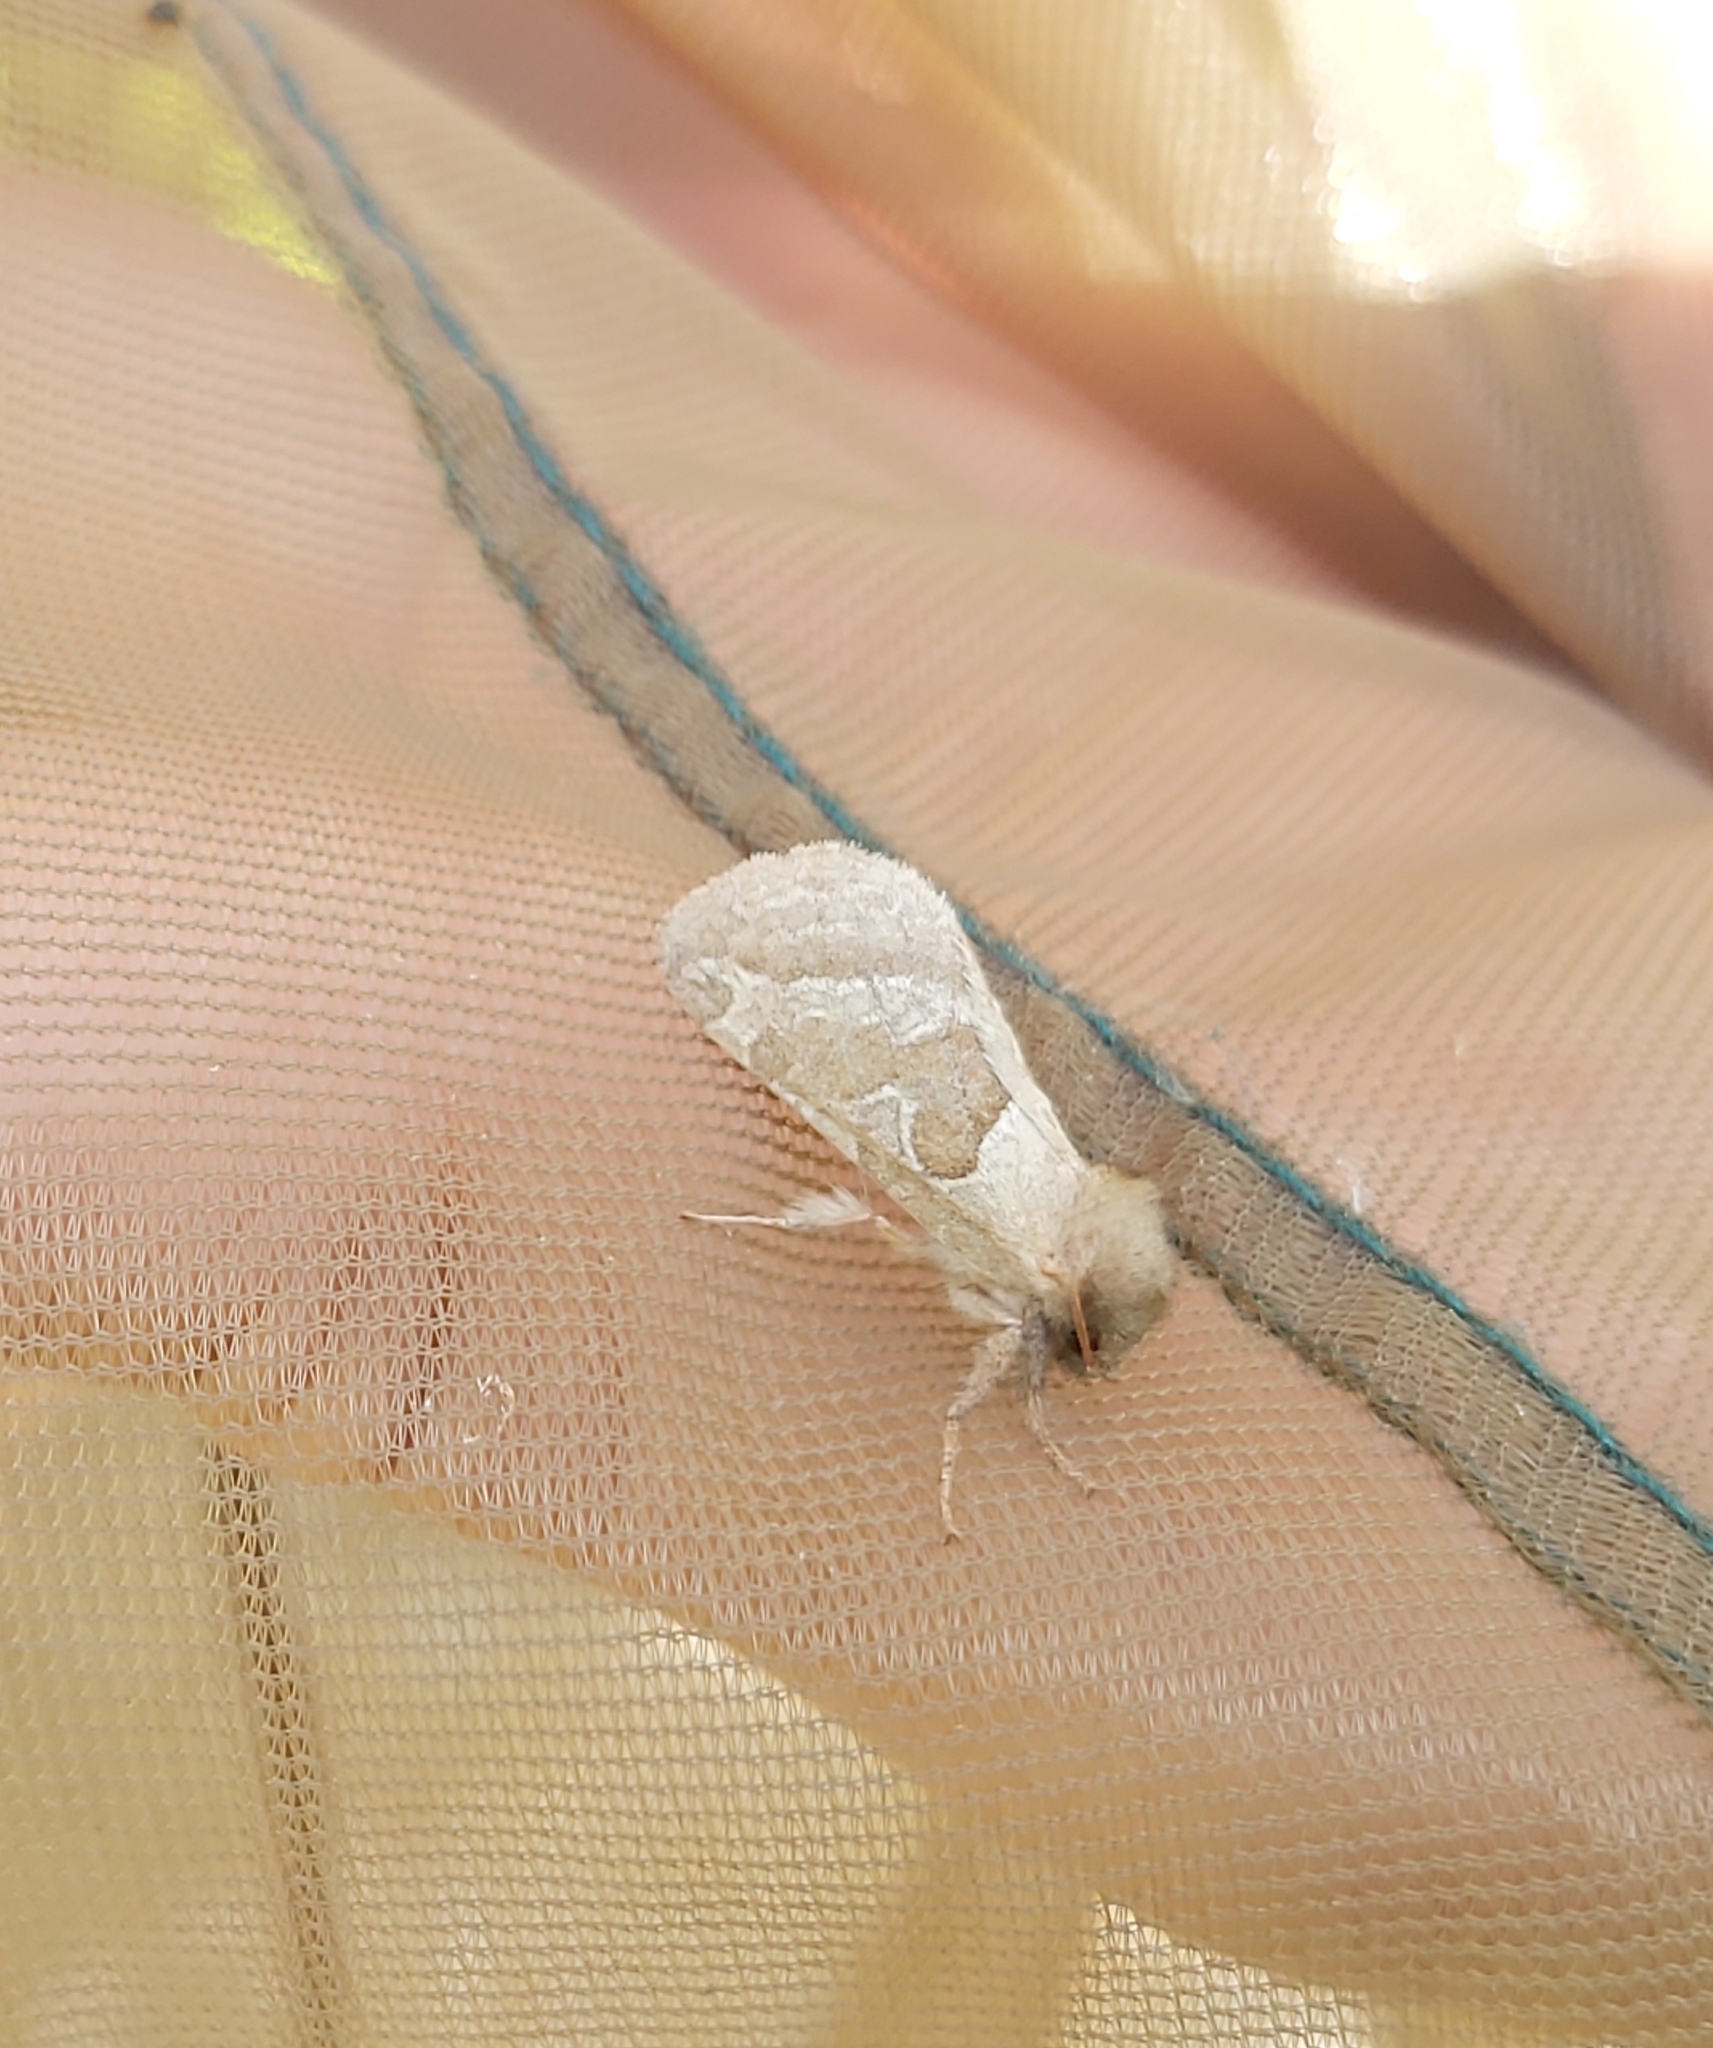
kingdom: Animalia
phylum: Arthropoda
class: Insecta
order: Lepidoptera
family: Hepialidae
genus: Triodia
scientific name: Triodia sylvina
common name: Orange swift
